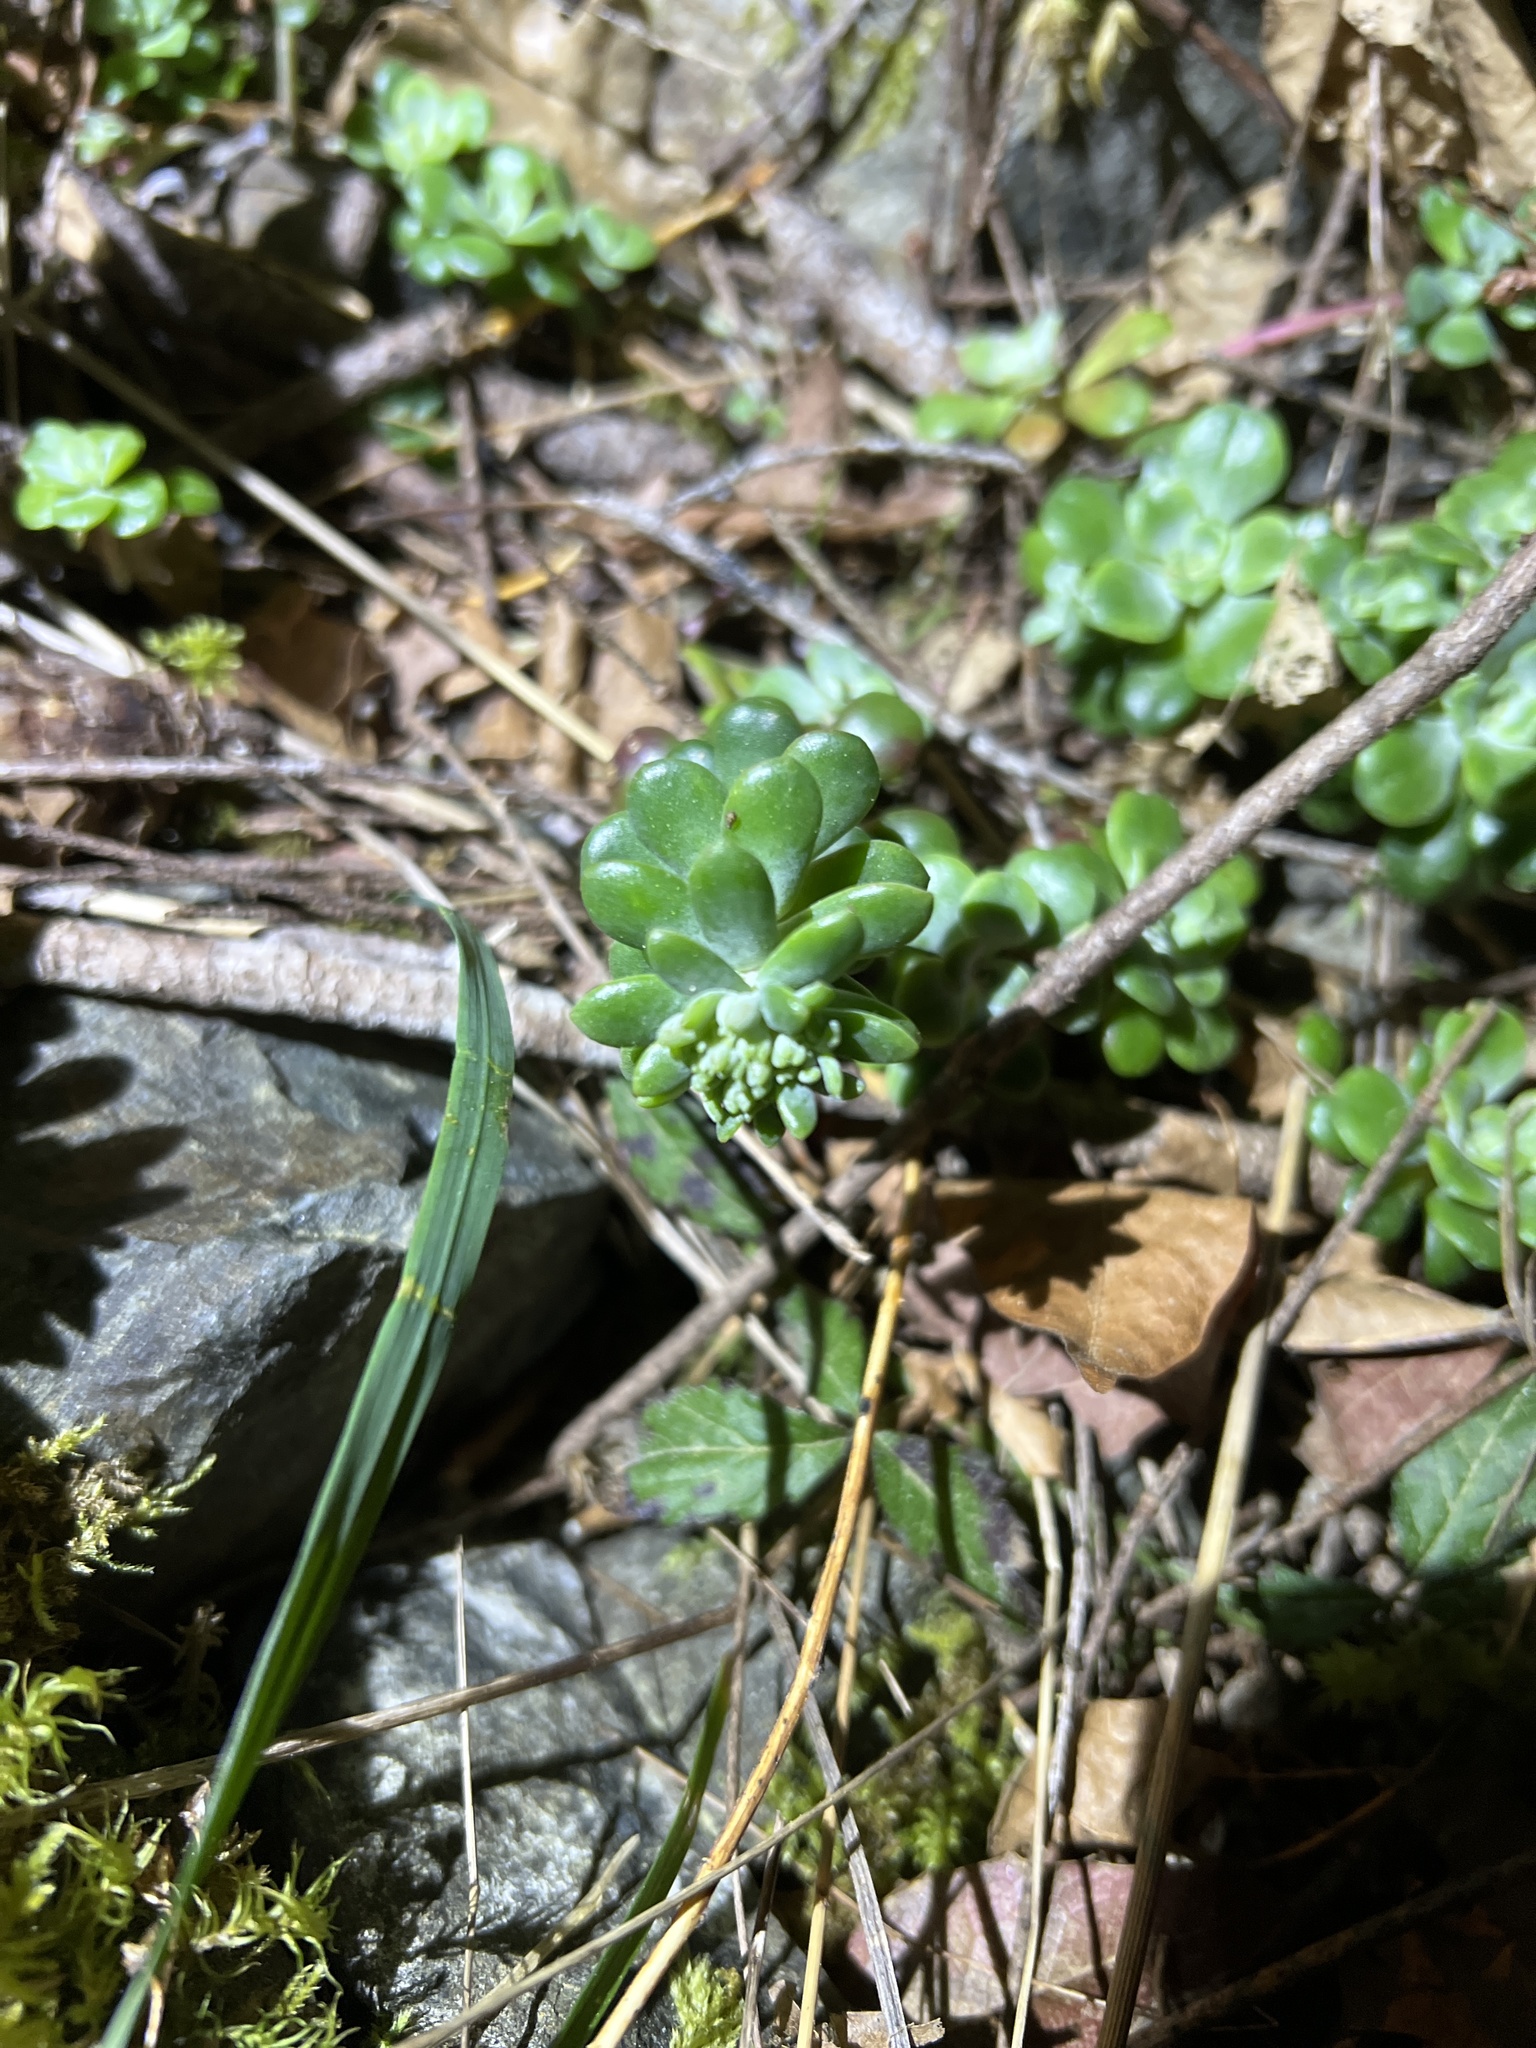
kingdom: Plantae
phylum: Tracheophyta
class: Magnoliopsida
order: Saxifragales
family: Crassulaceae
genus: Sedum
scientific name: Sedum spathulifolium
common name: Colorado stonecrop
